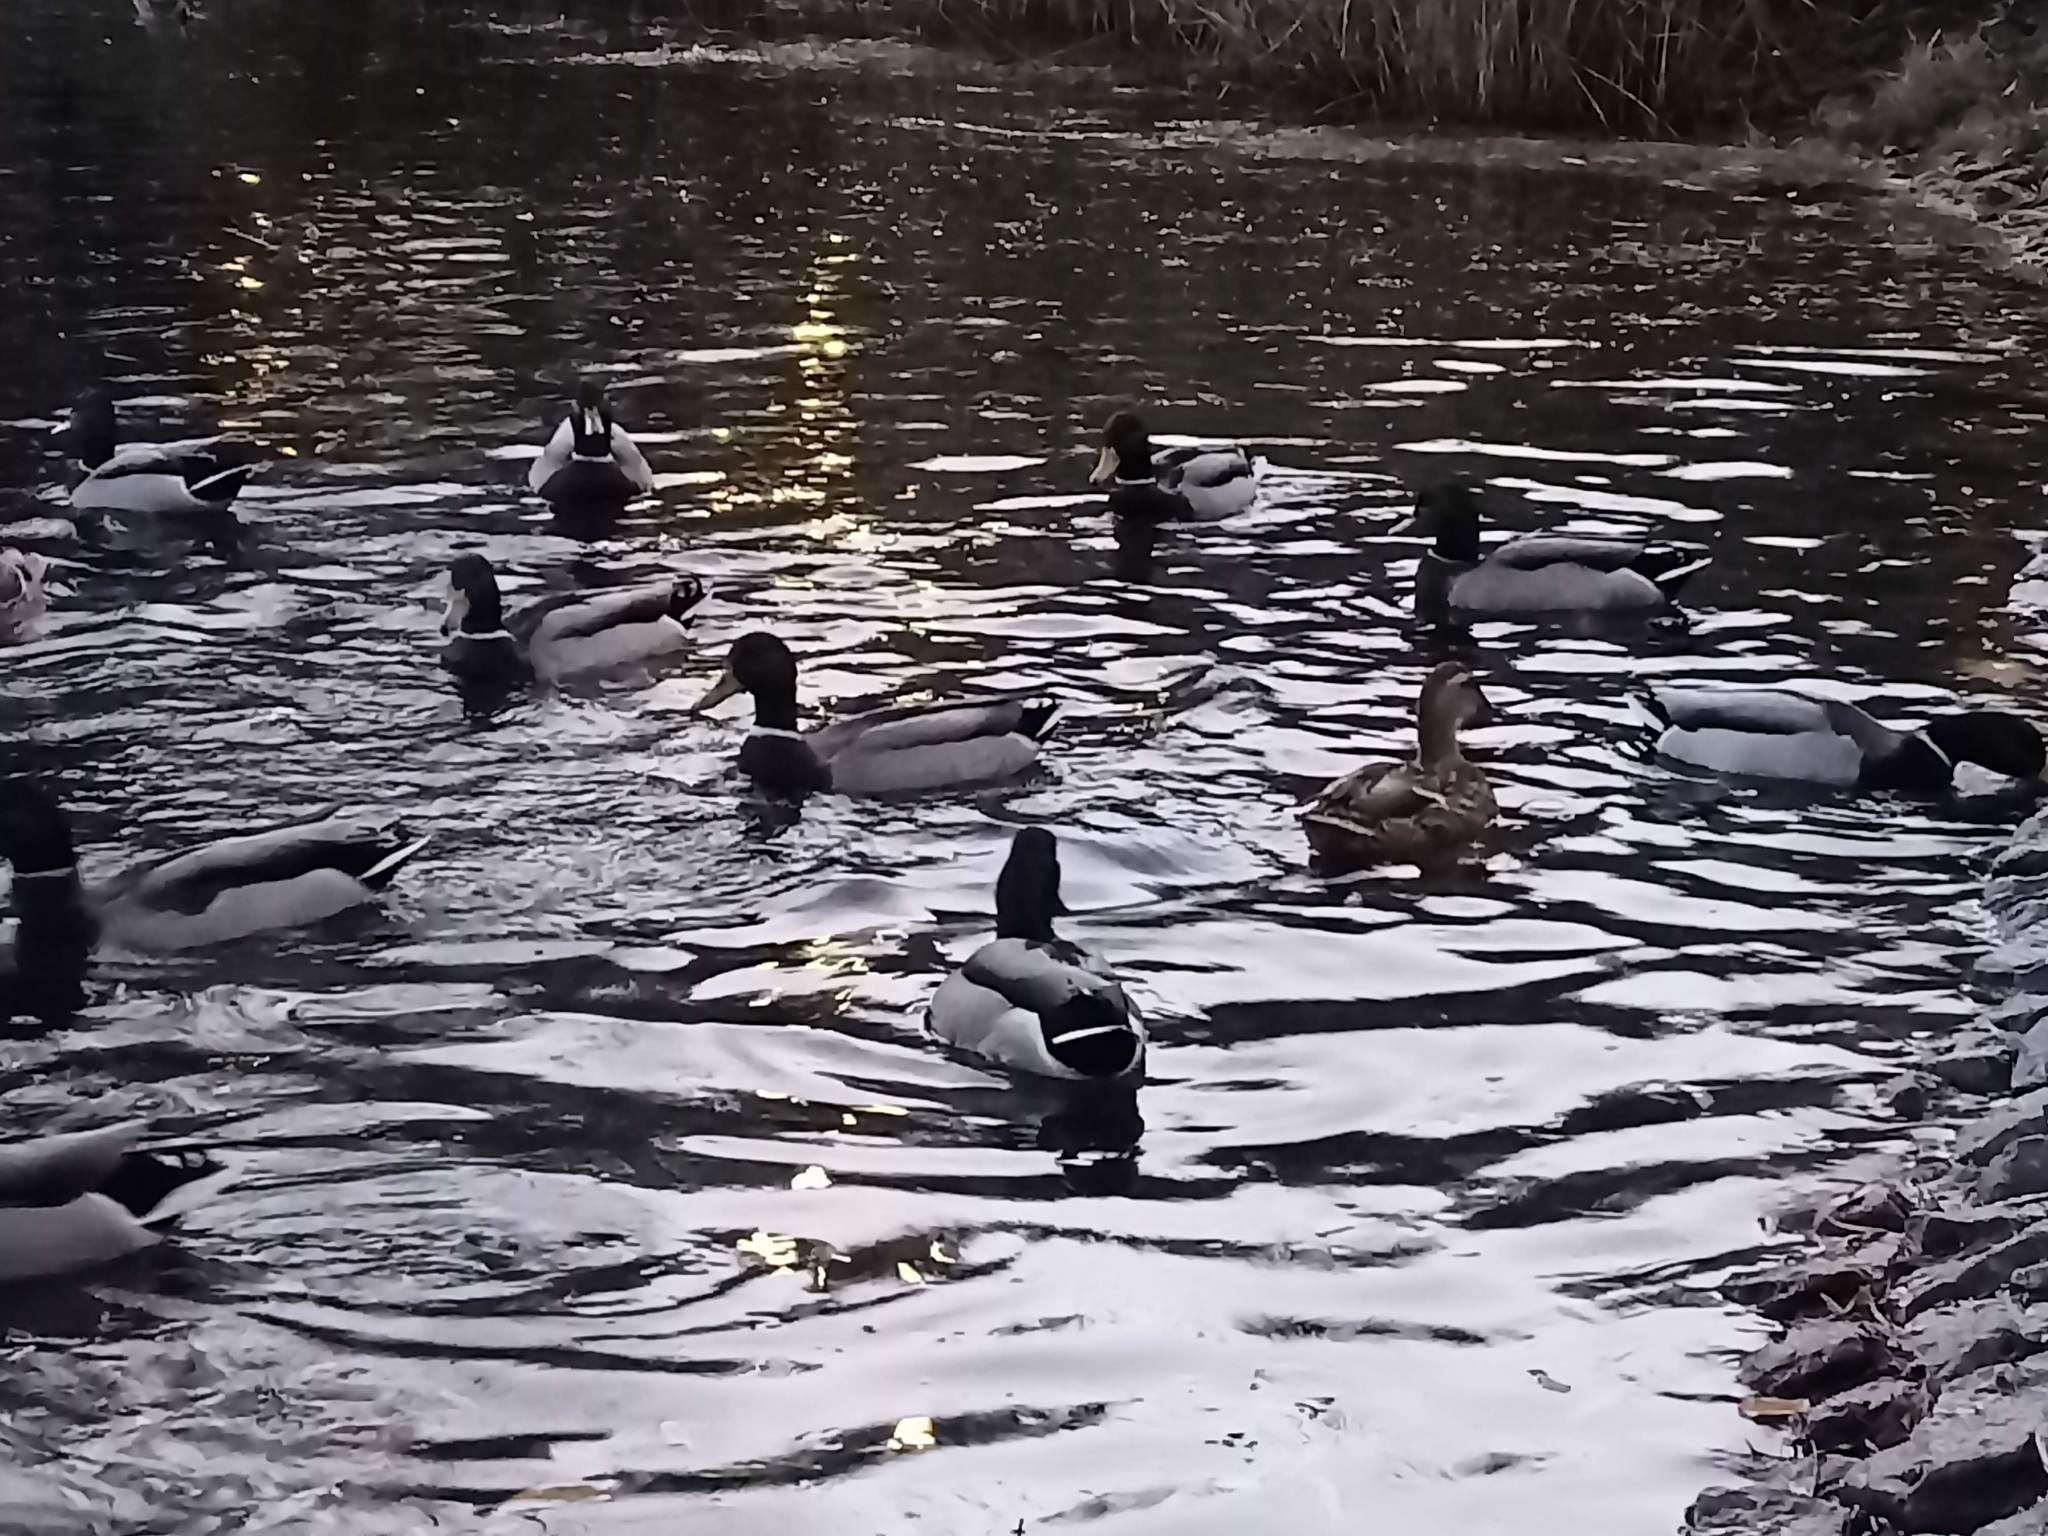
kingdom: Animalia
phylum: Chordata
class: Aves
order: Anseriformes
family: Anatidae
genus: Anas
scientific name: Anas platyrhynchos
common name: Mallard
